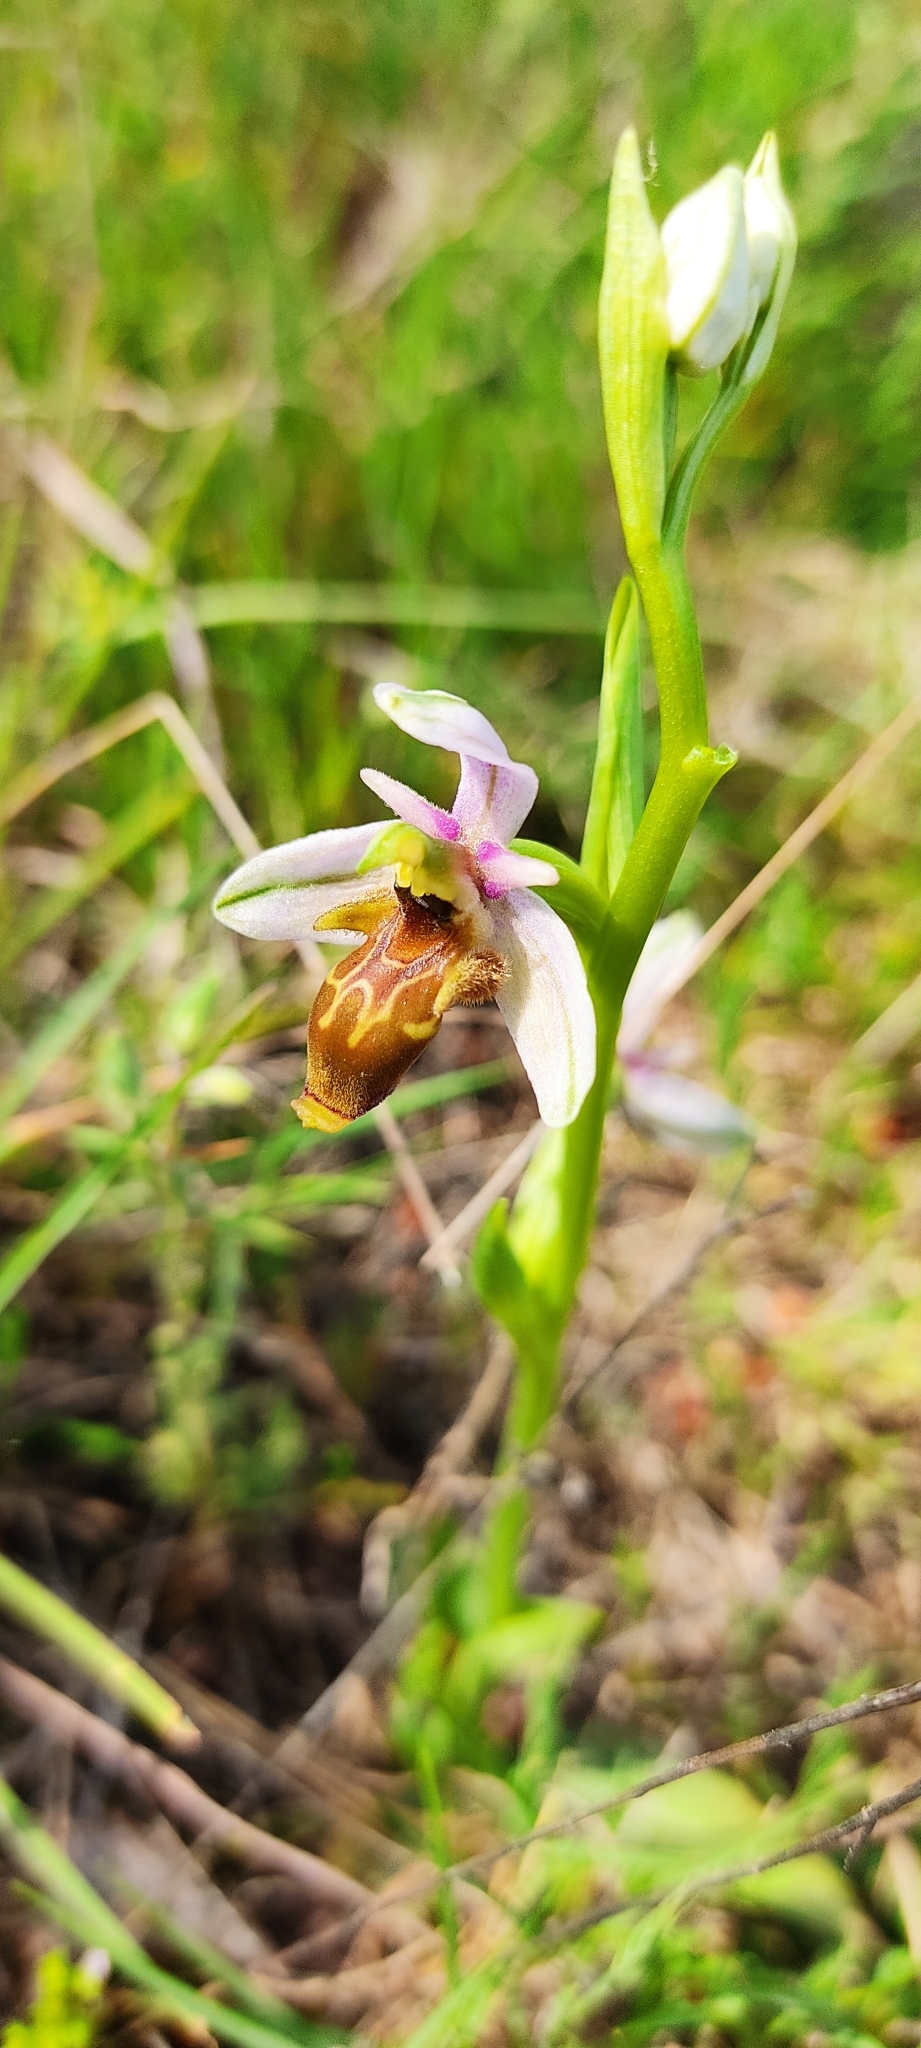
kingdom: Plantae
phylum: Tracheophyta
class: Liliopsida
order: Asparagales
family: Orchidaceae
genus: Ophrys
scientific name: Ophrys scolopax
